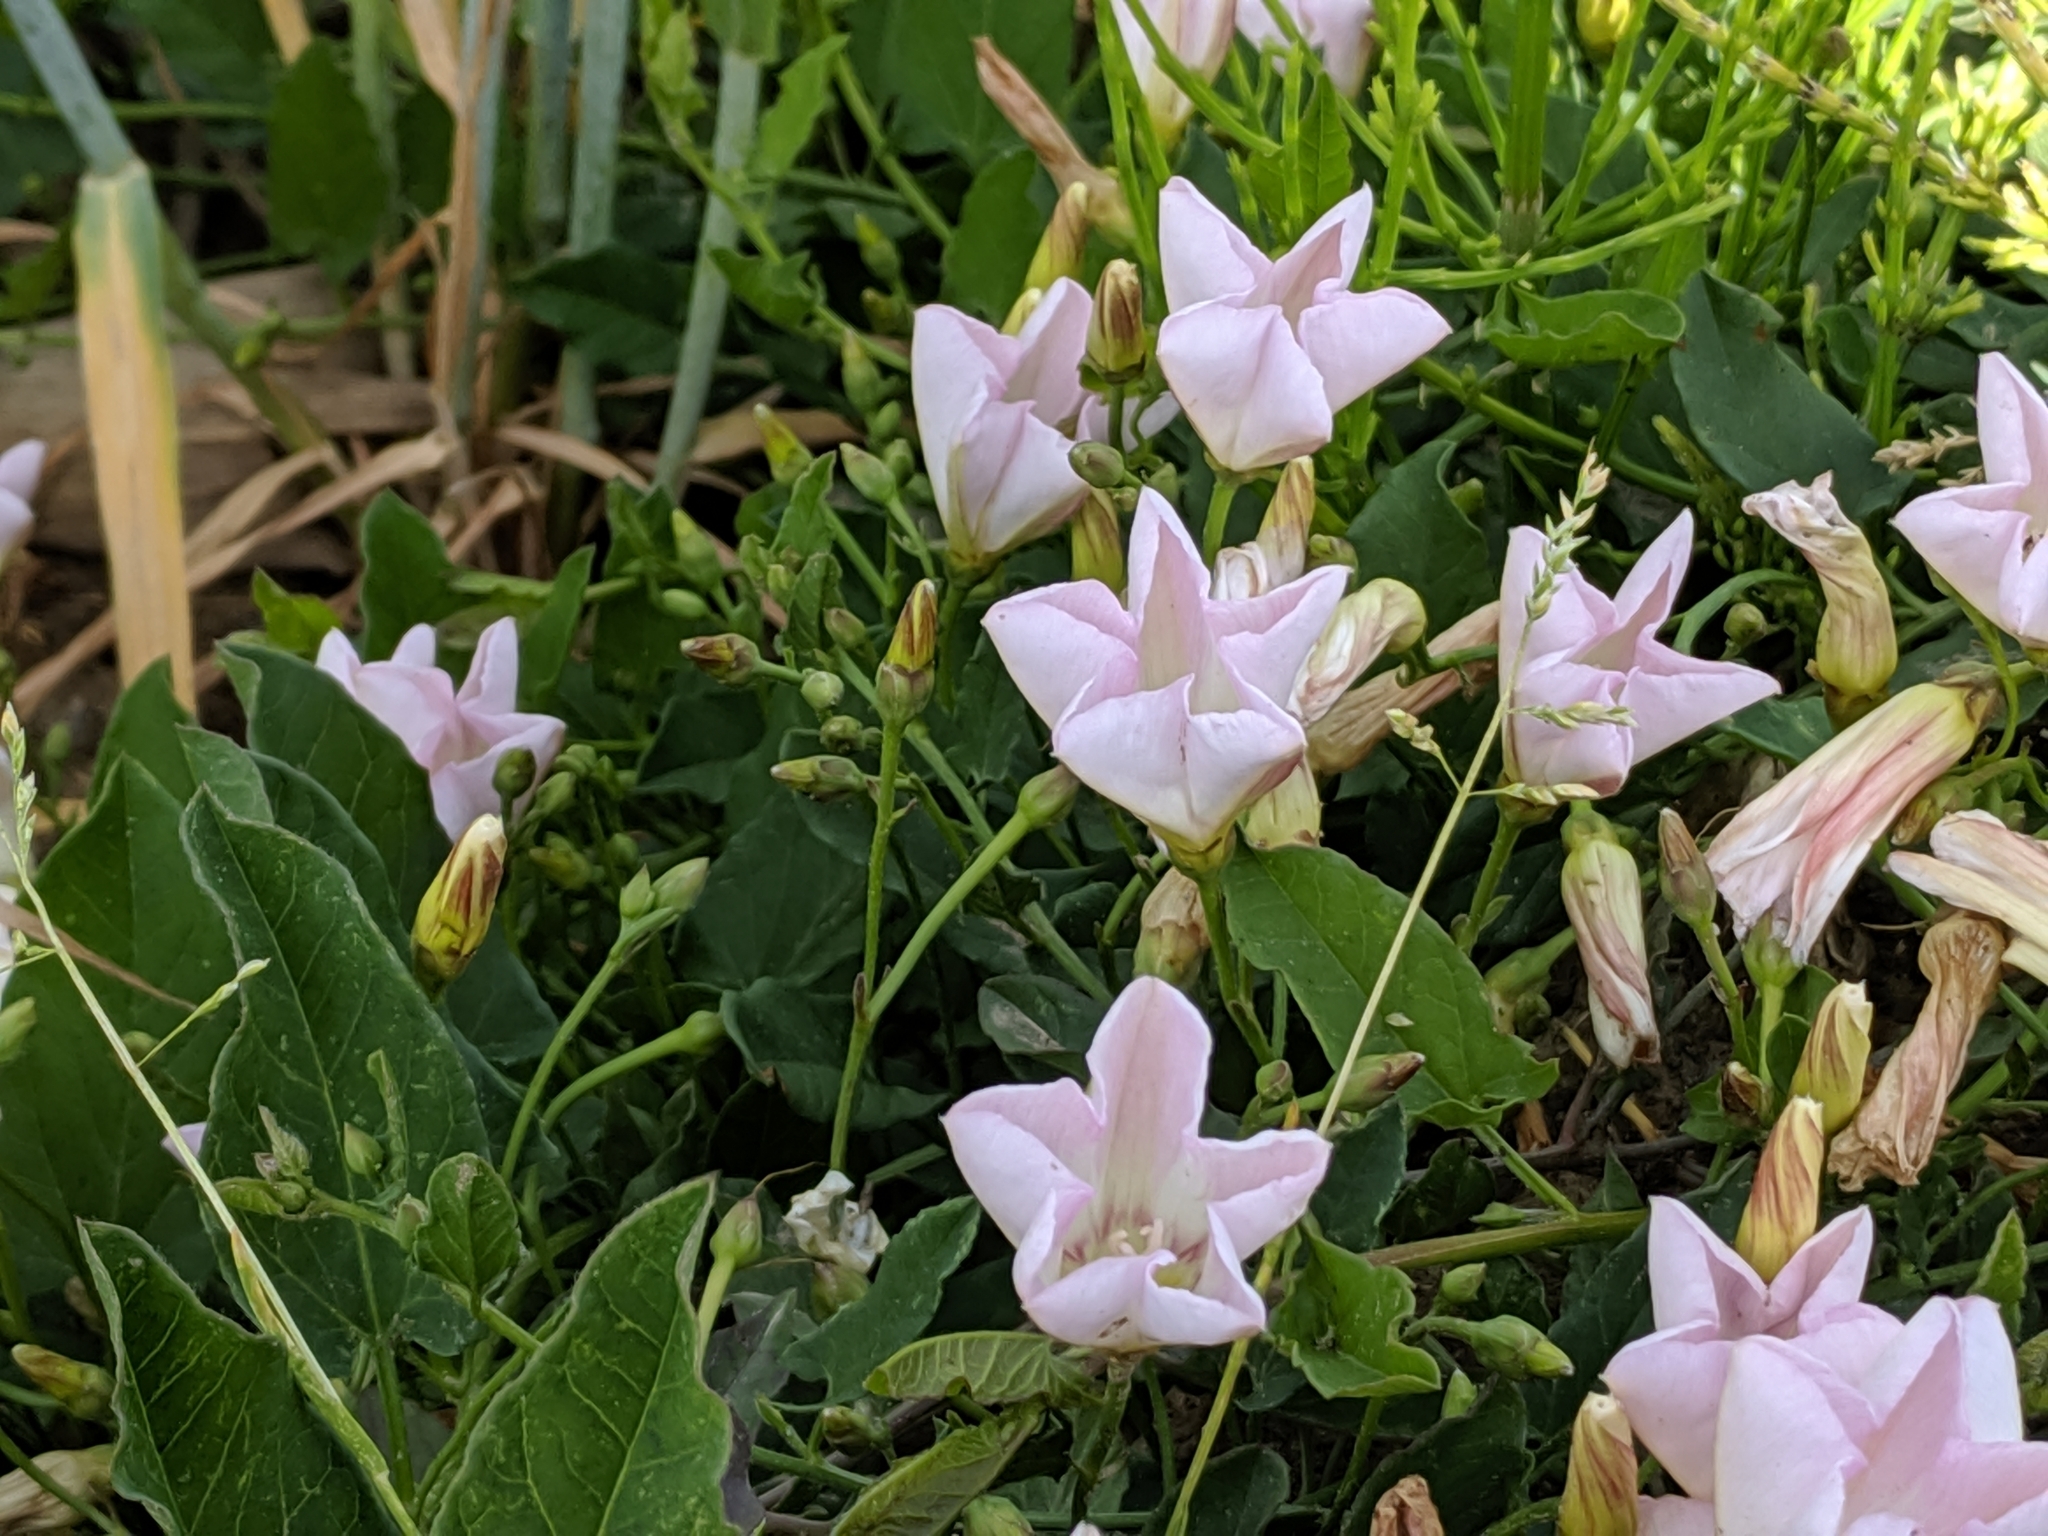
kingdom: Plantae
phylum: Tracheophyta
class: Magnoliopsida
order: Solanales
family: Convolvulaceae
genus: Convolvulus
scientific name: Convolvulus arvensis
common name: Field bindweed
